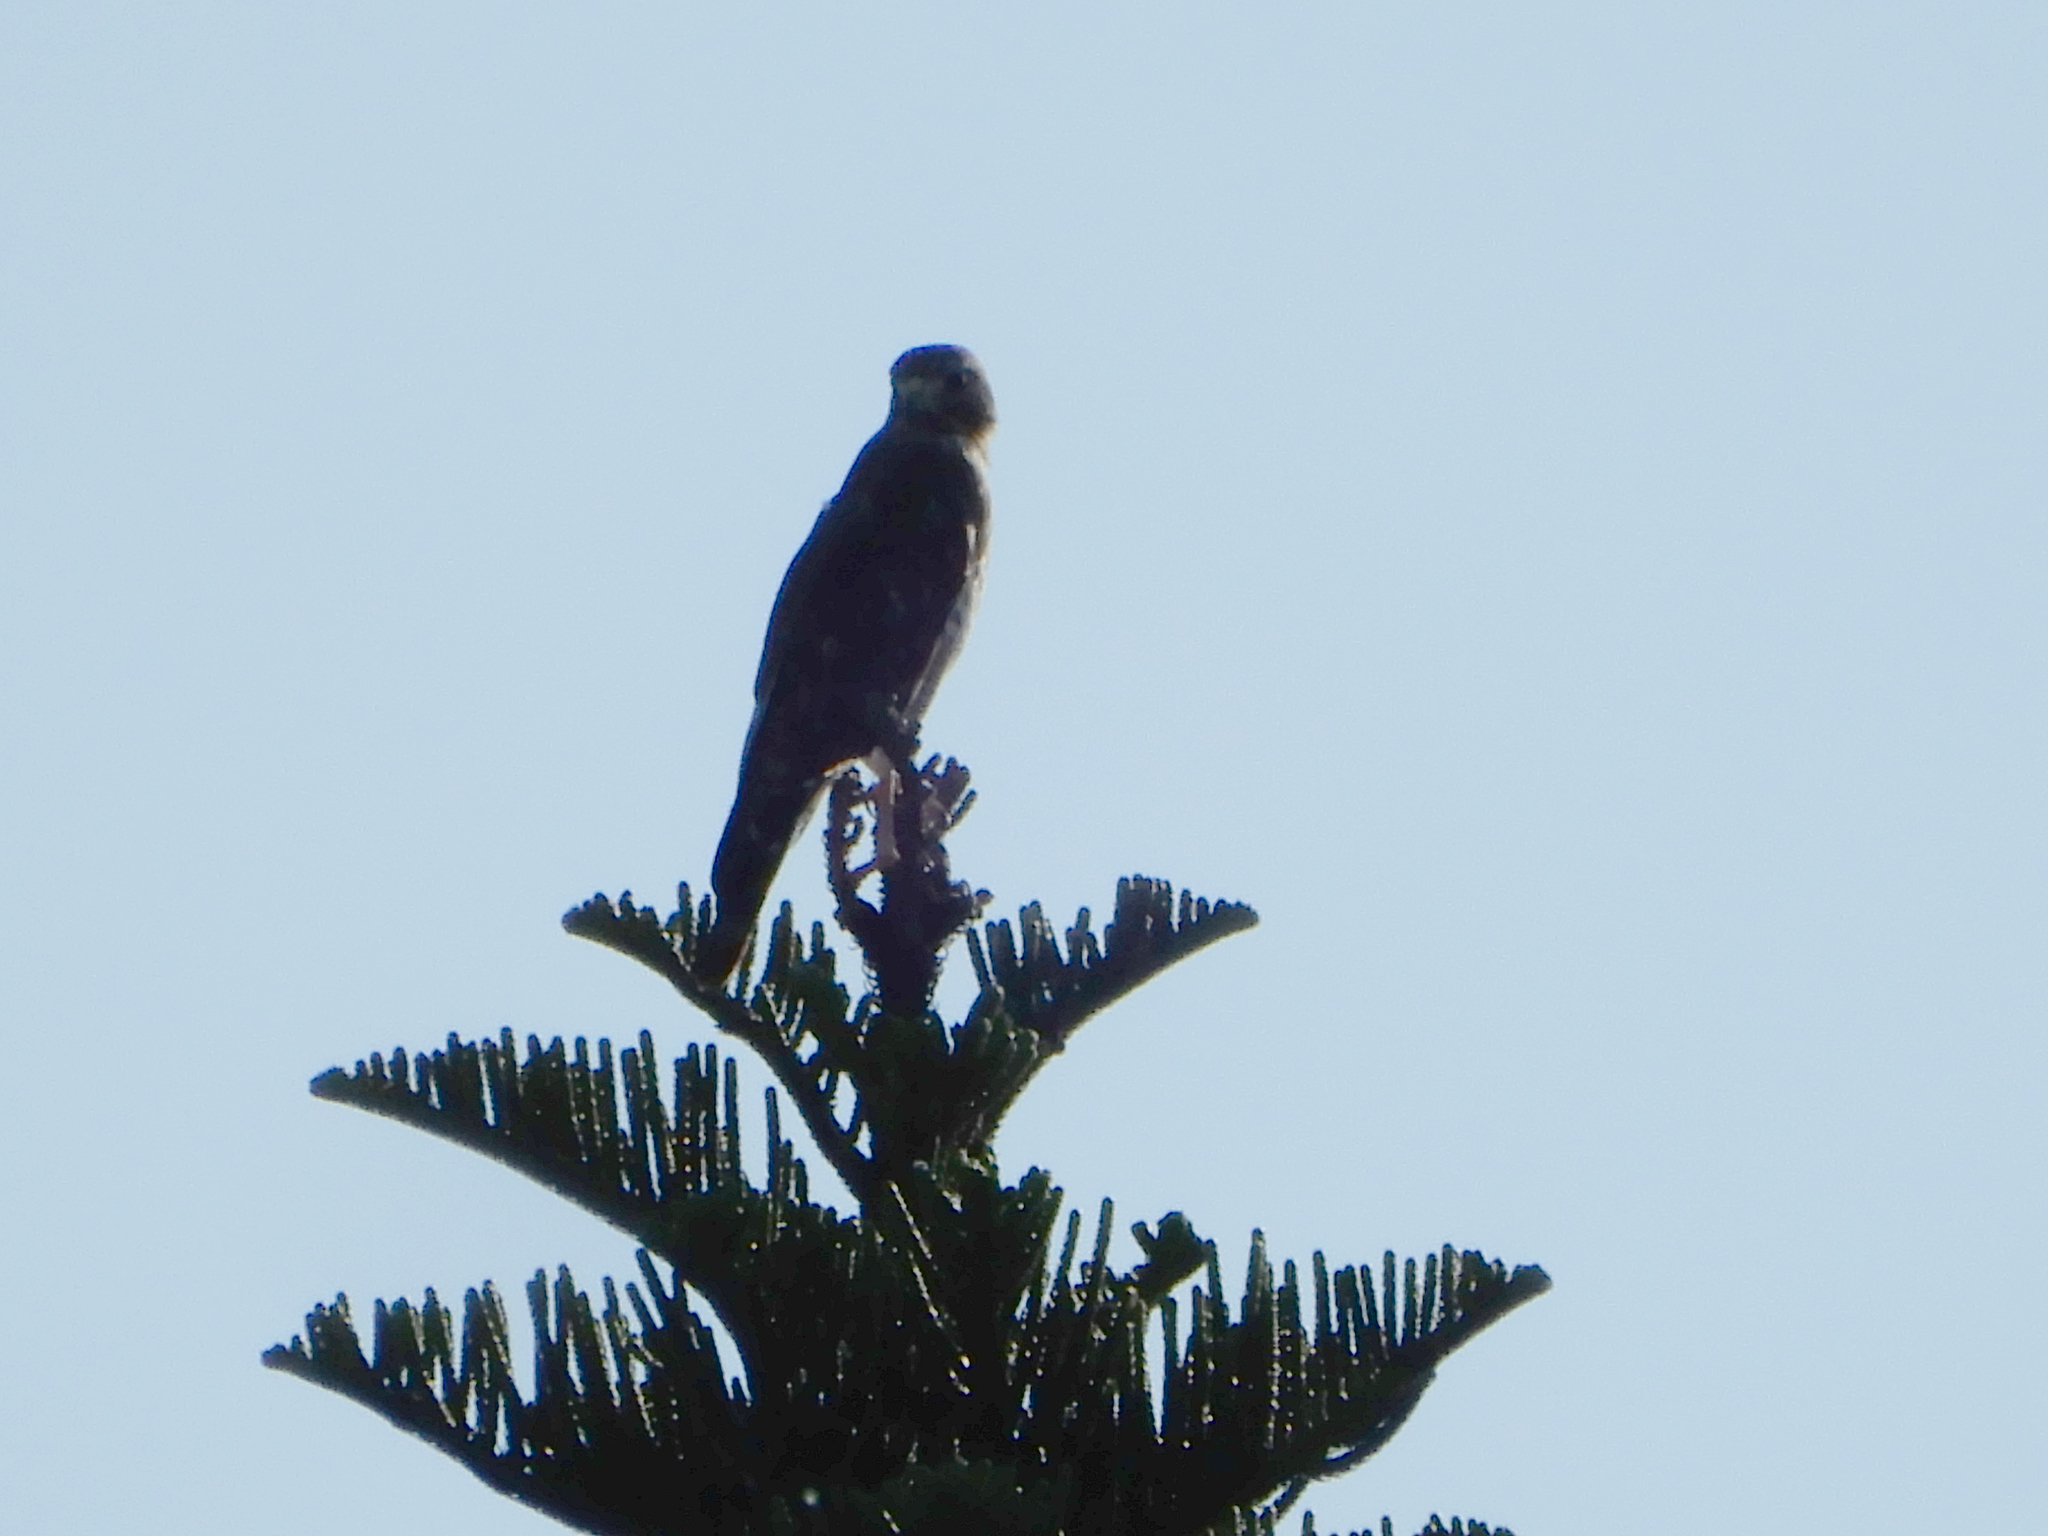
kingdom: Animalia
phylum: Chordata
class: Aves
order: Accipitriformes
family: Accipitridae
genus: Buteo
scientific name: Buteo lineatus
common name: Red-shouldered hawk
